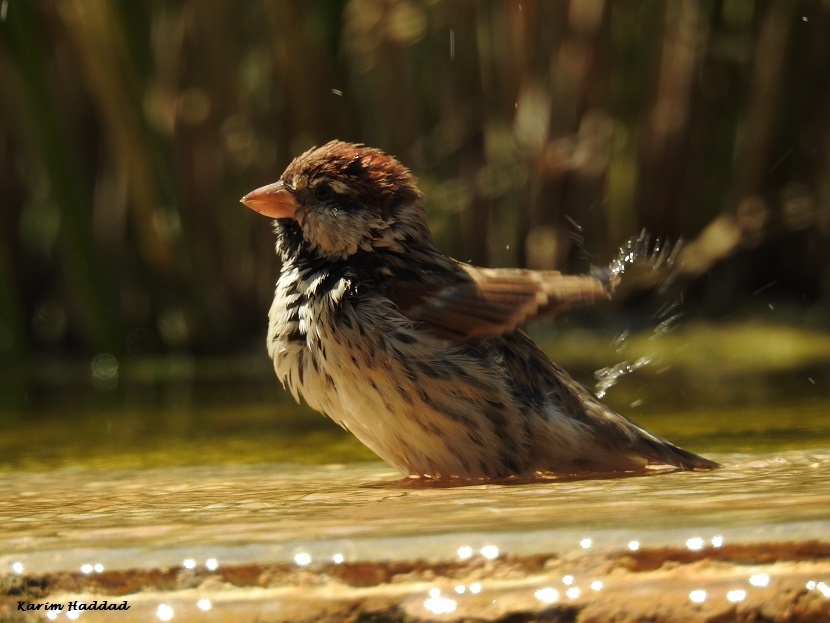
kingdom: Animalia
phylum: Chordata
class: Aves
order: Passeriformes
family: Passeridae
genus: Passer
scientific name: Passer hispaniolensis
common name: Spanish sparrow
